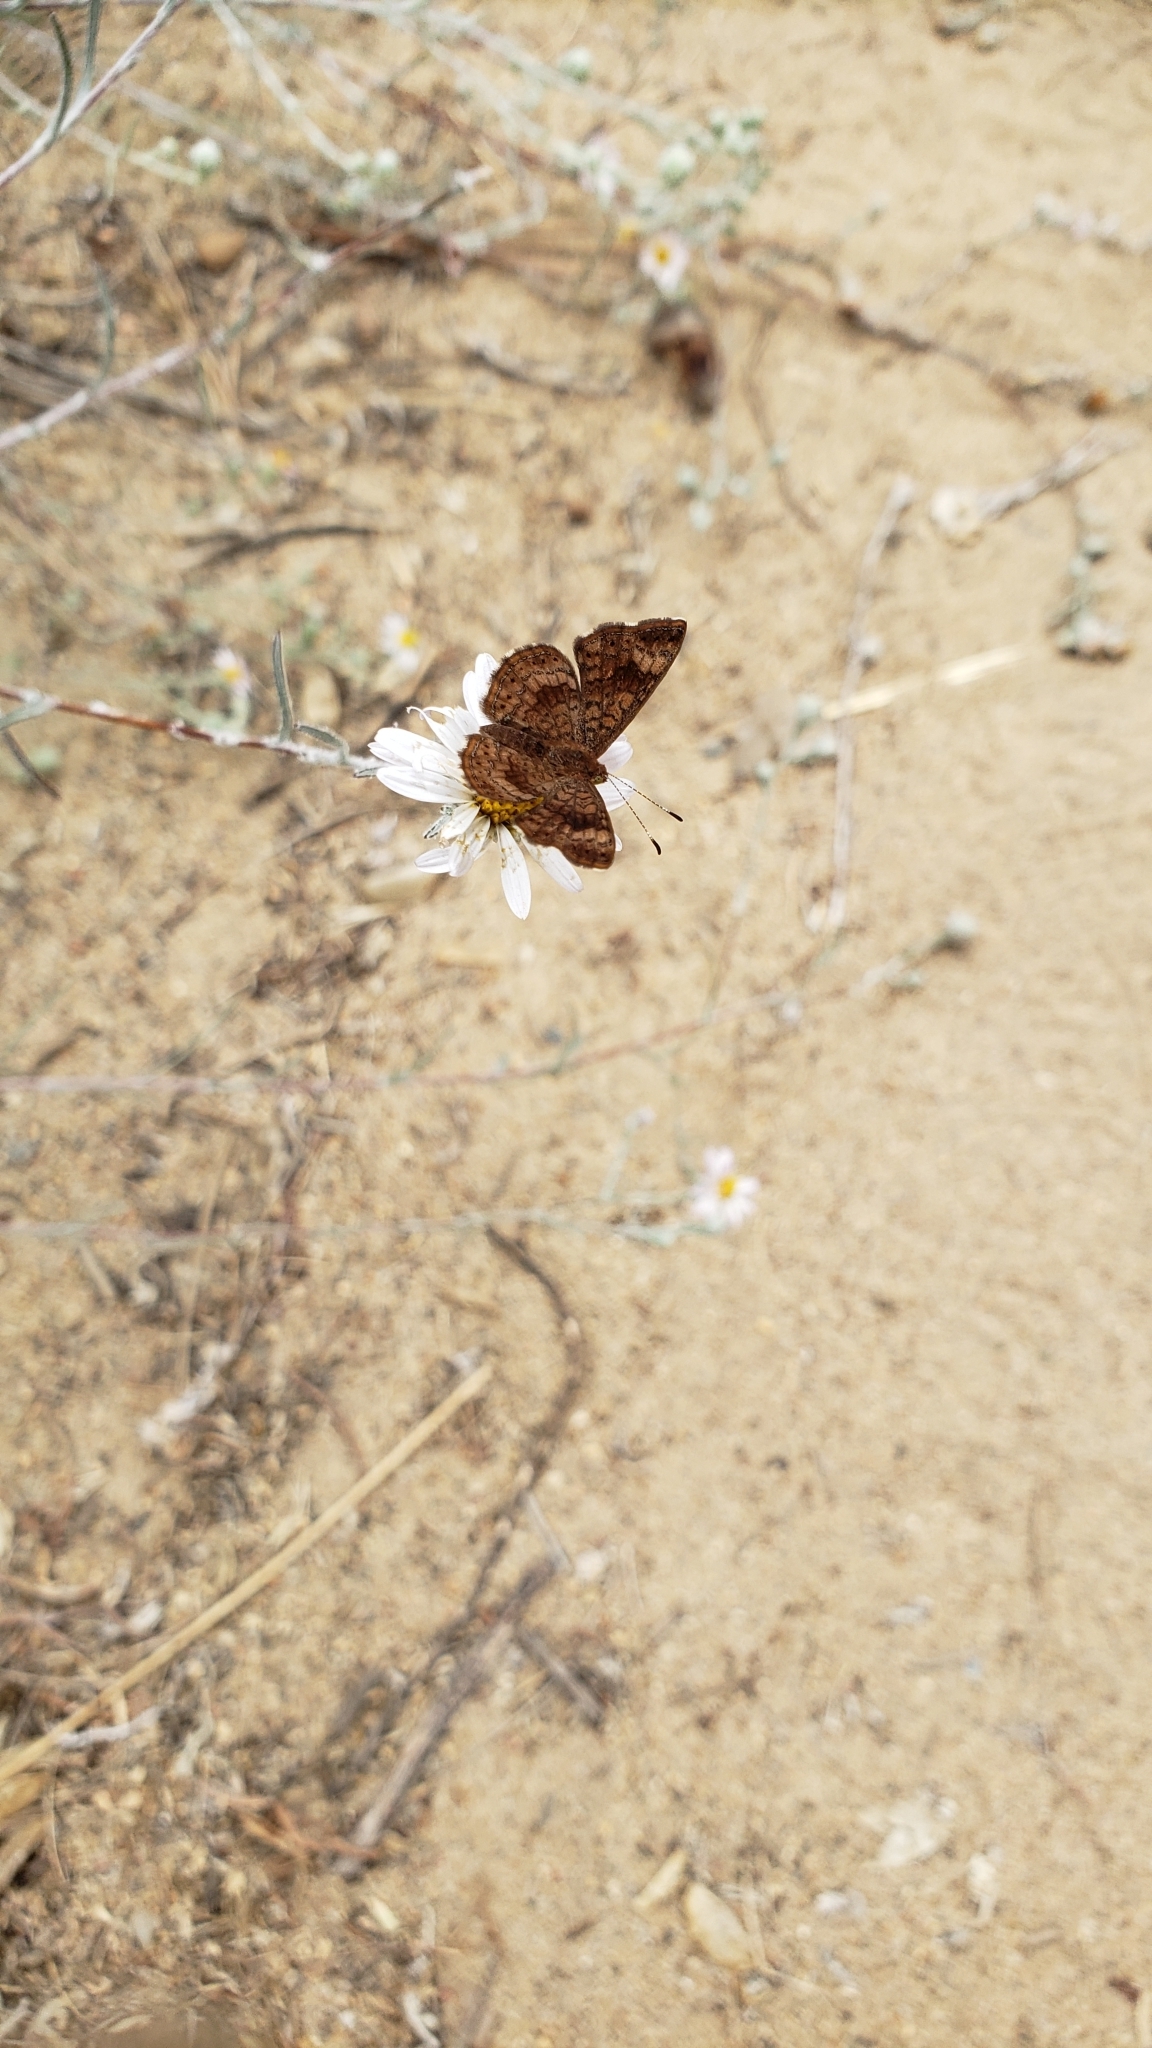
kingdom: Animalia
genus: Calephelis
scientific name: Calephelis nemesis
